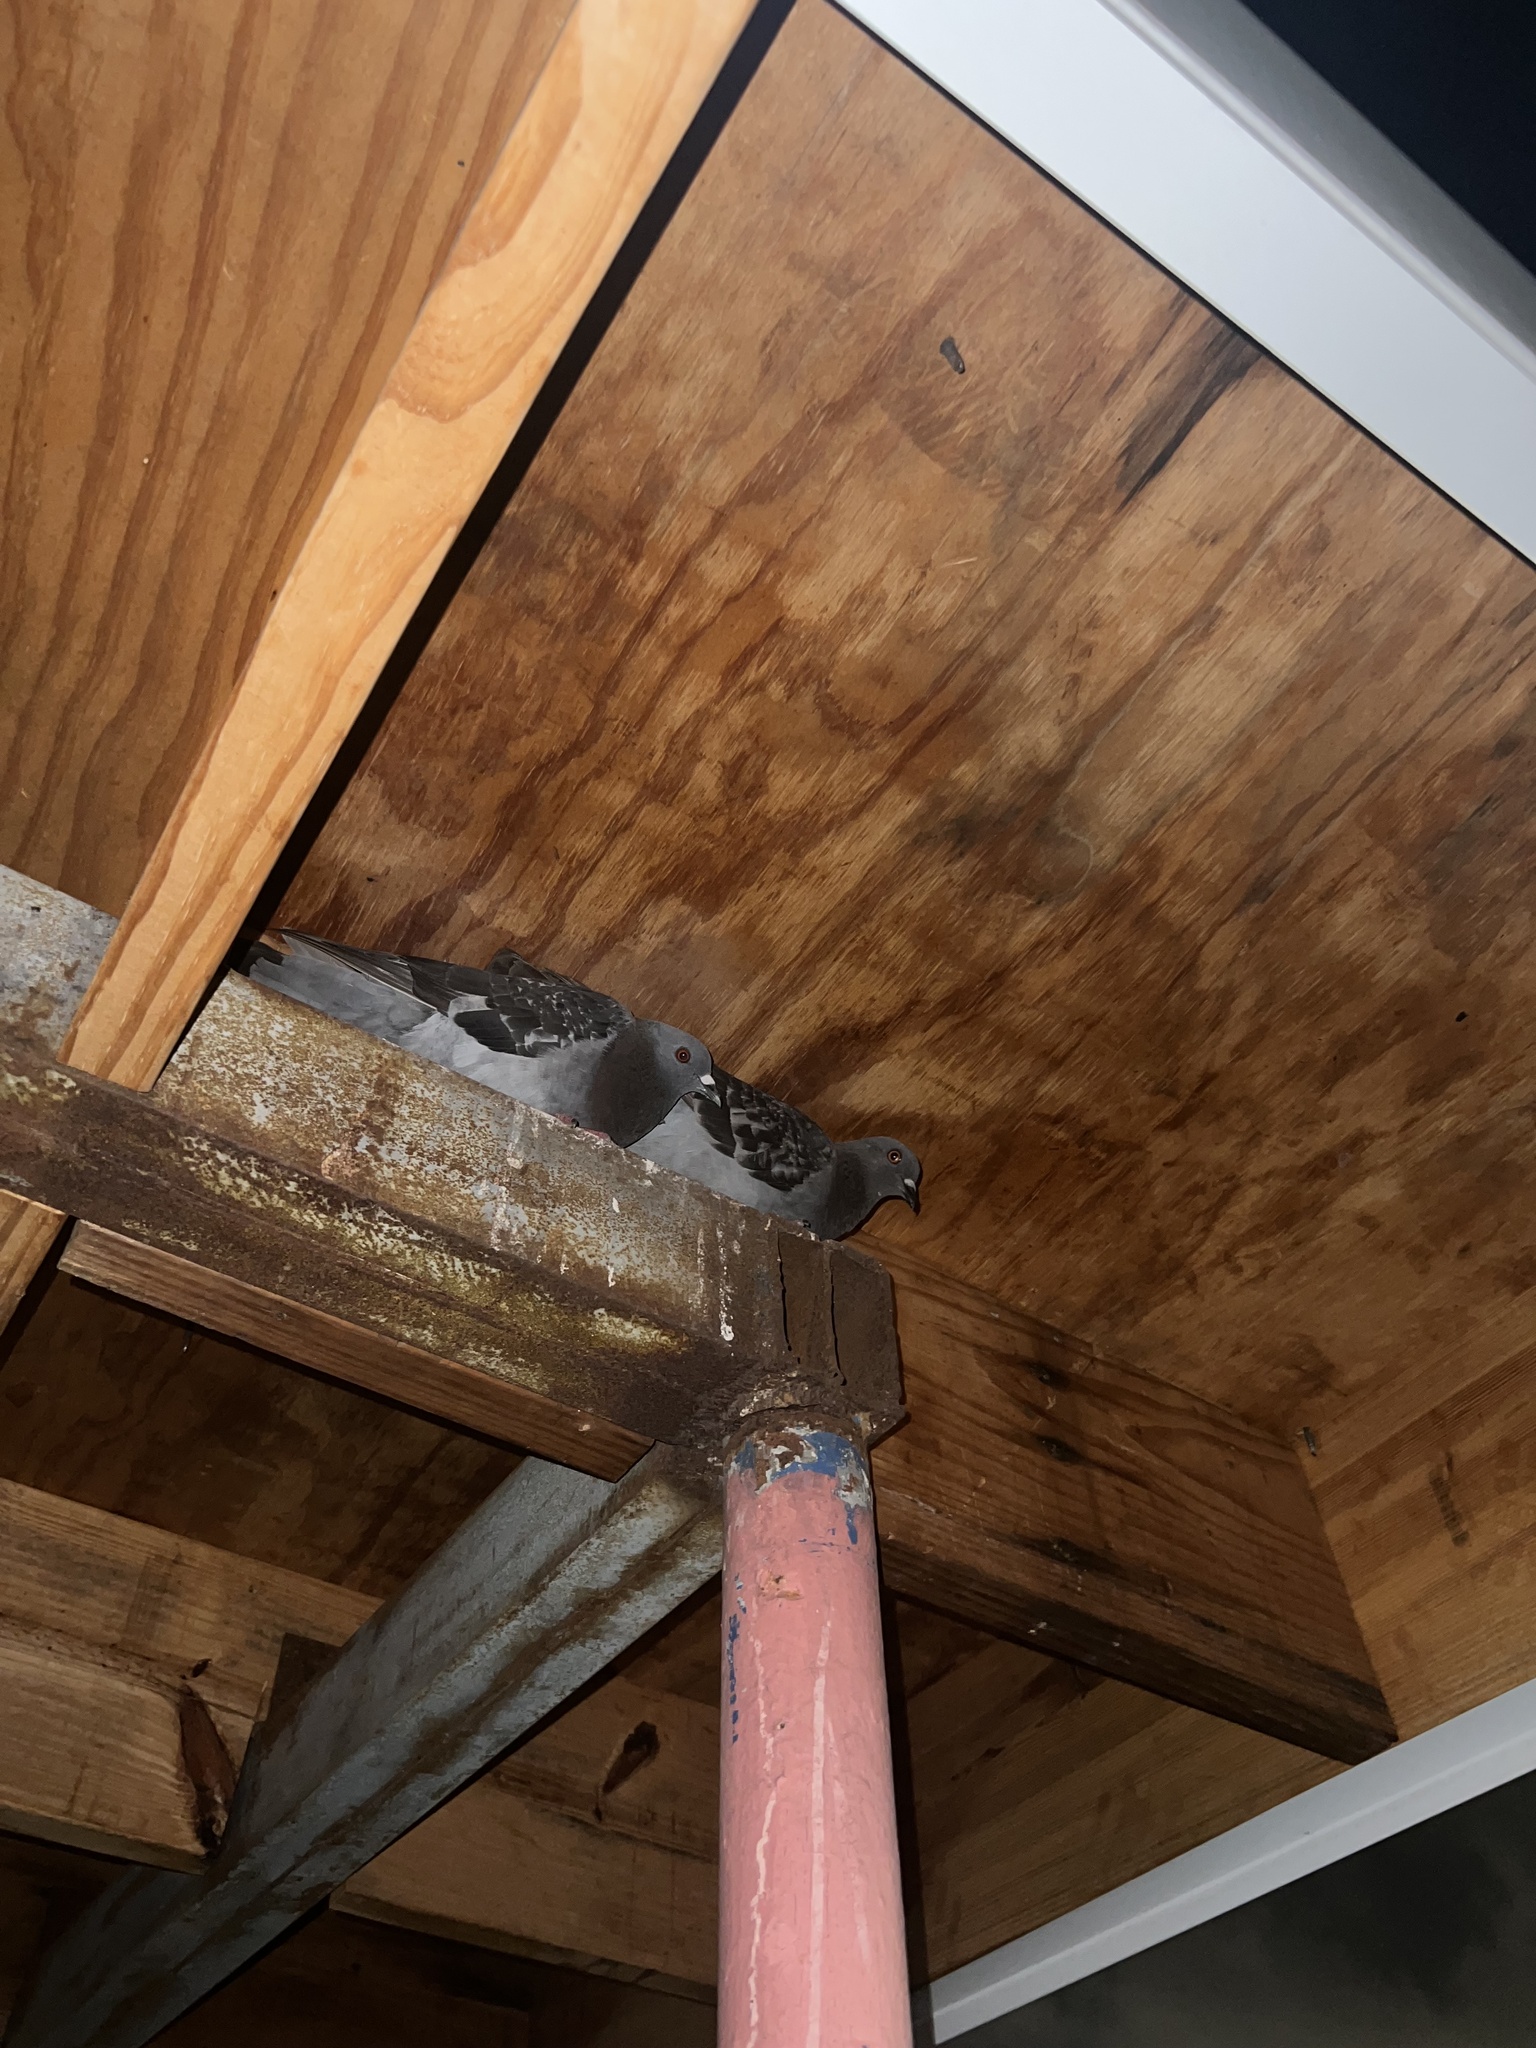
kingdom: Animalia
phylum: Chordata
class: Aves
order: Columbiformes
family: Columbidae
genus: Columba
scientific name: Columba livia
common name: Rock pigeon
